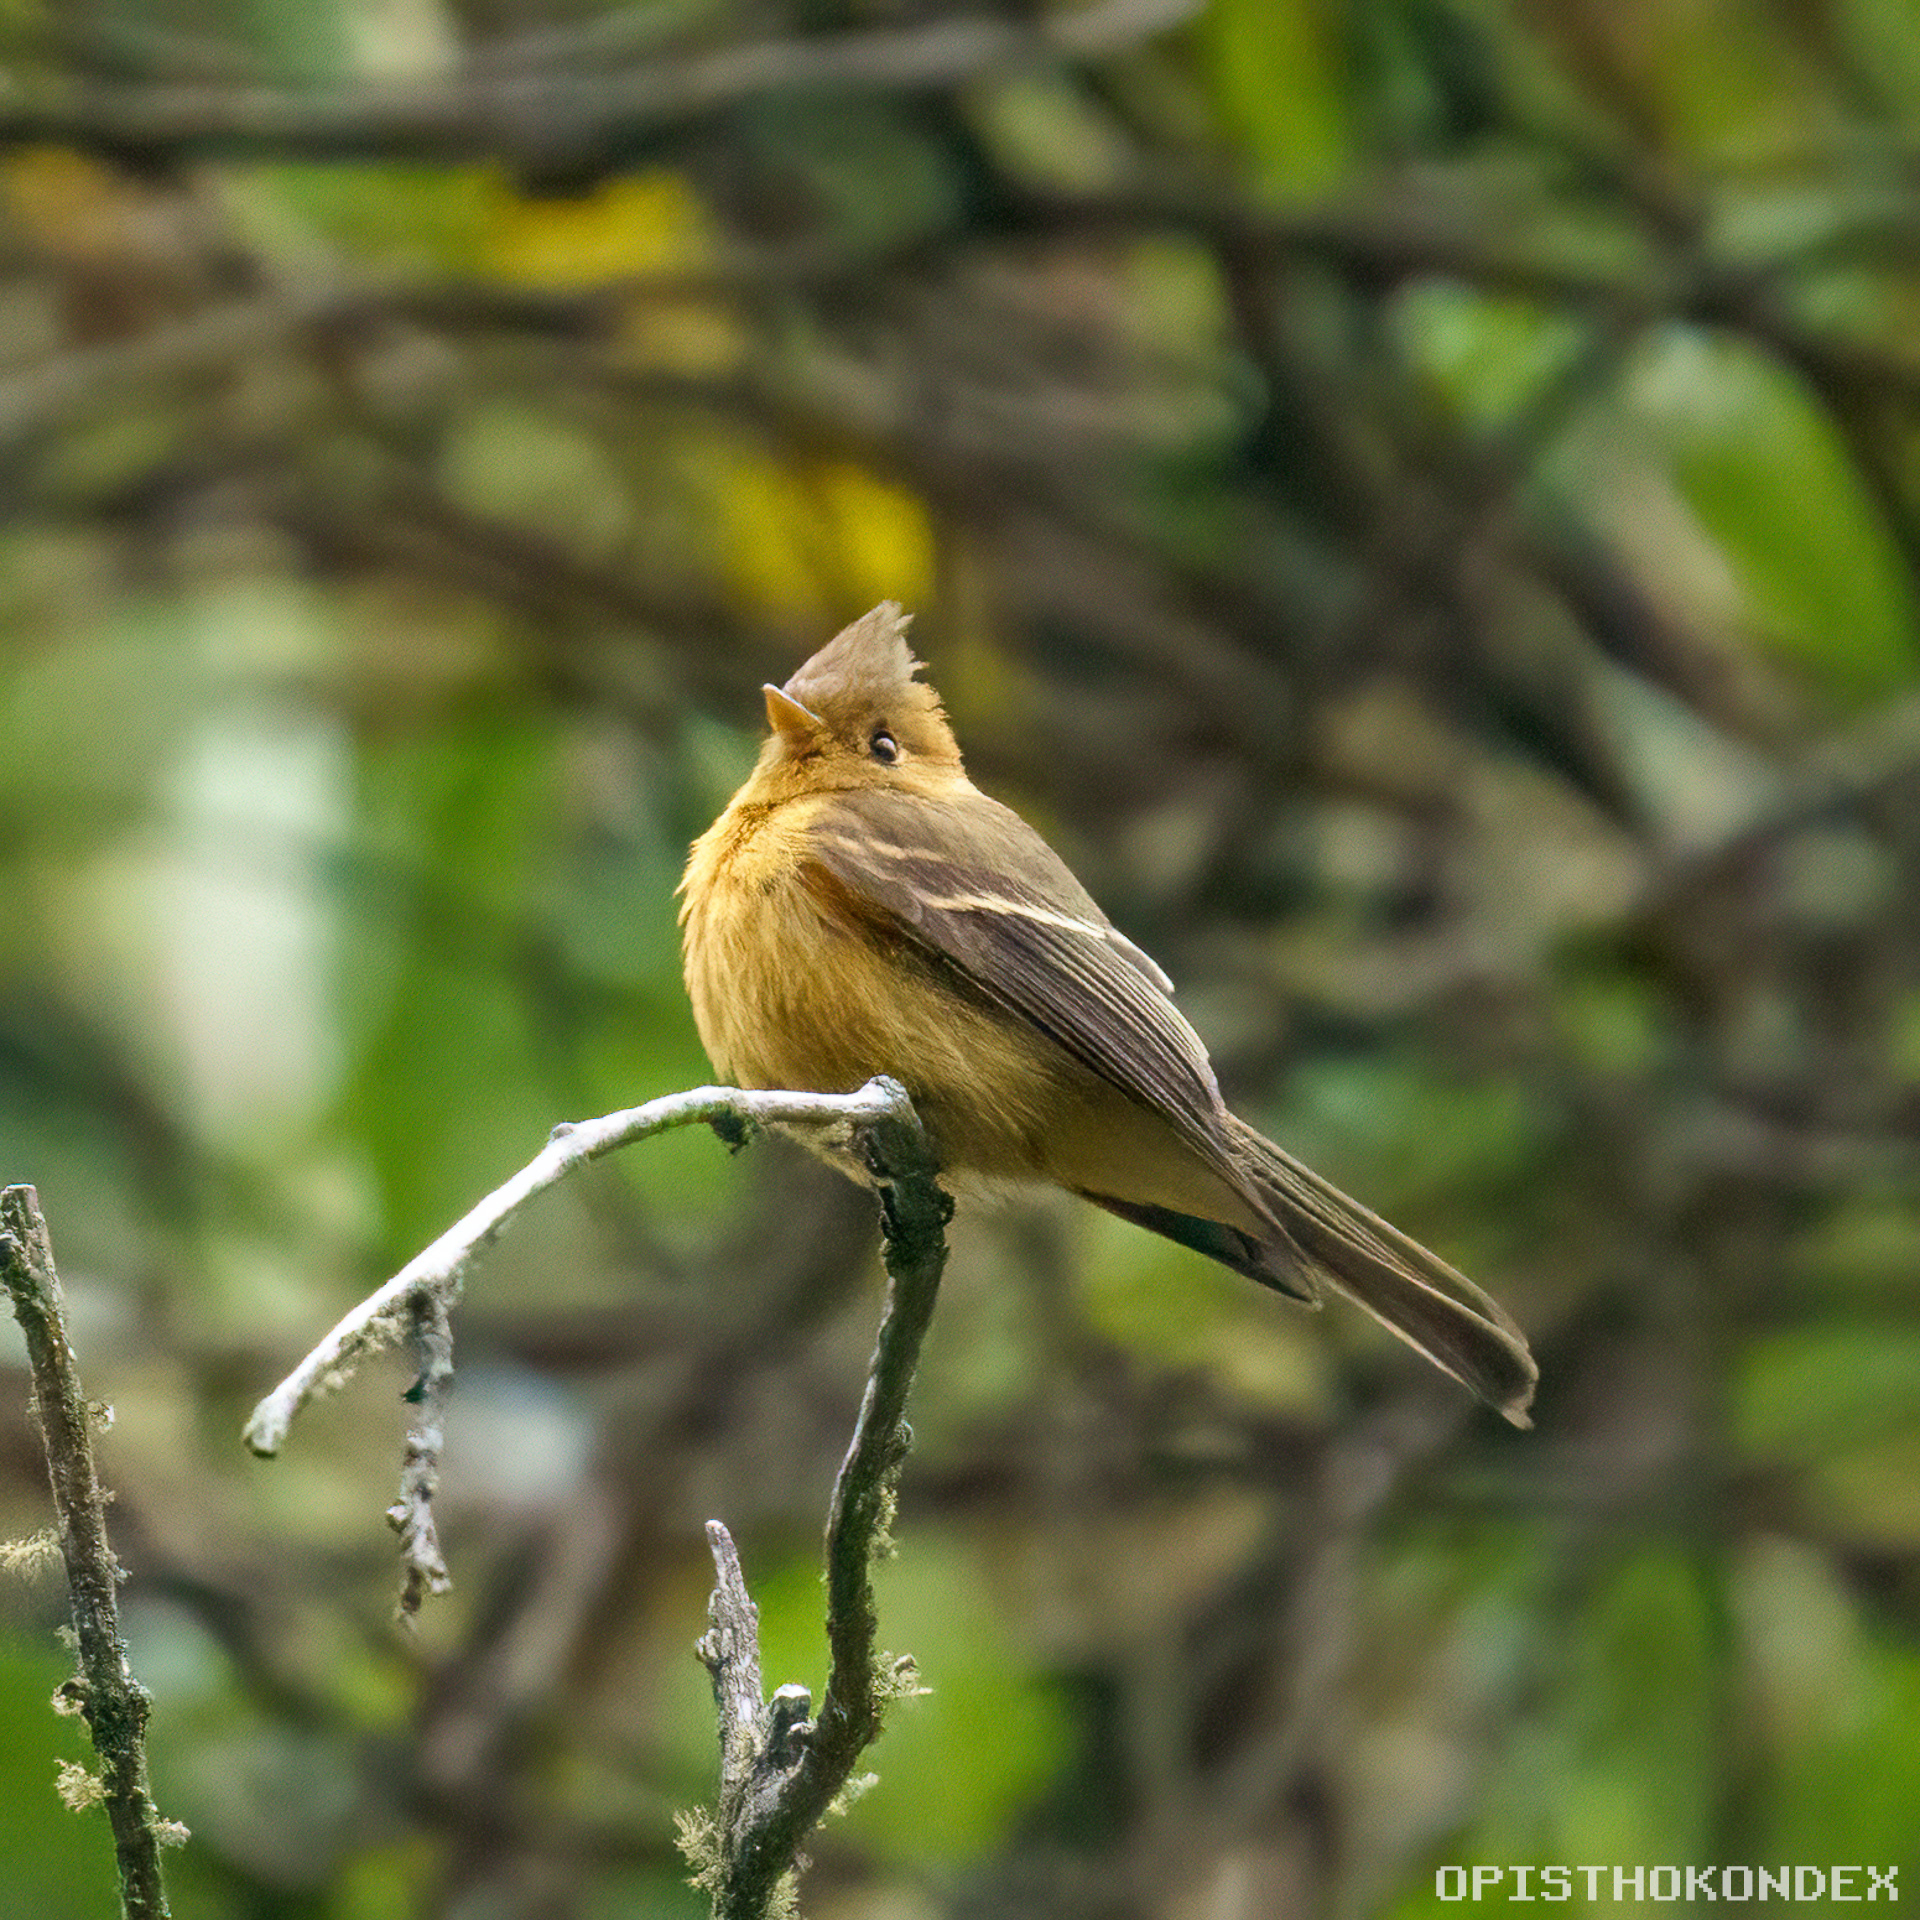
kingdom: Animalia
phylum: Chordata
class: Aves
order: Passeriformes
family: Tyrannidae
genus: Mitrephanes
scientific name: Mitrephanes phaeocercus
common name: Northern tufted flycatcher
